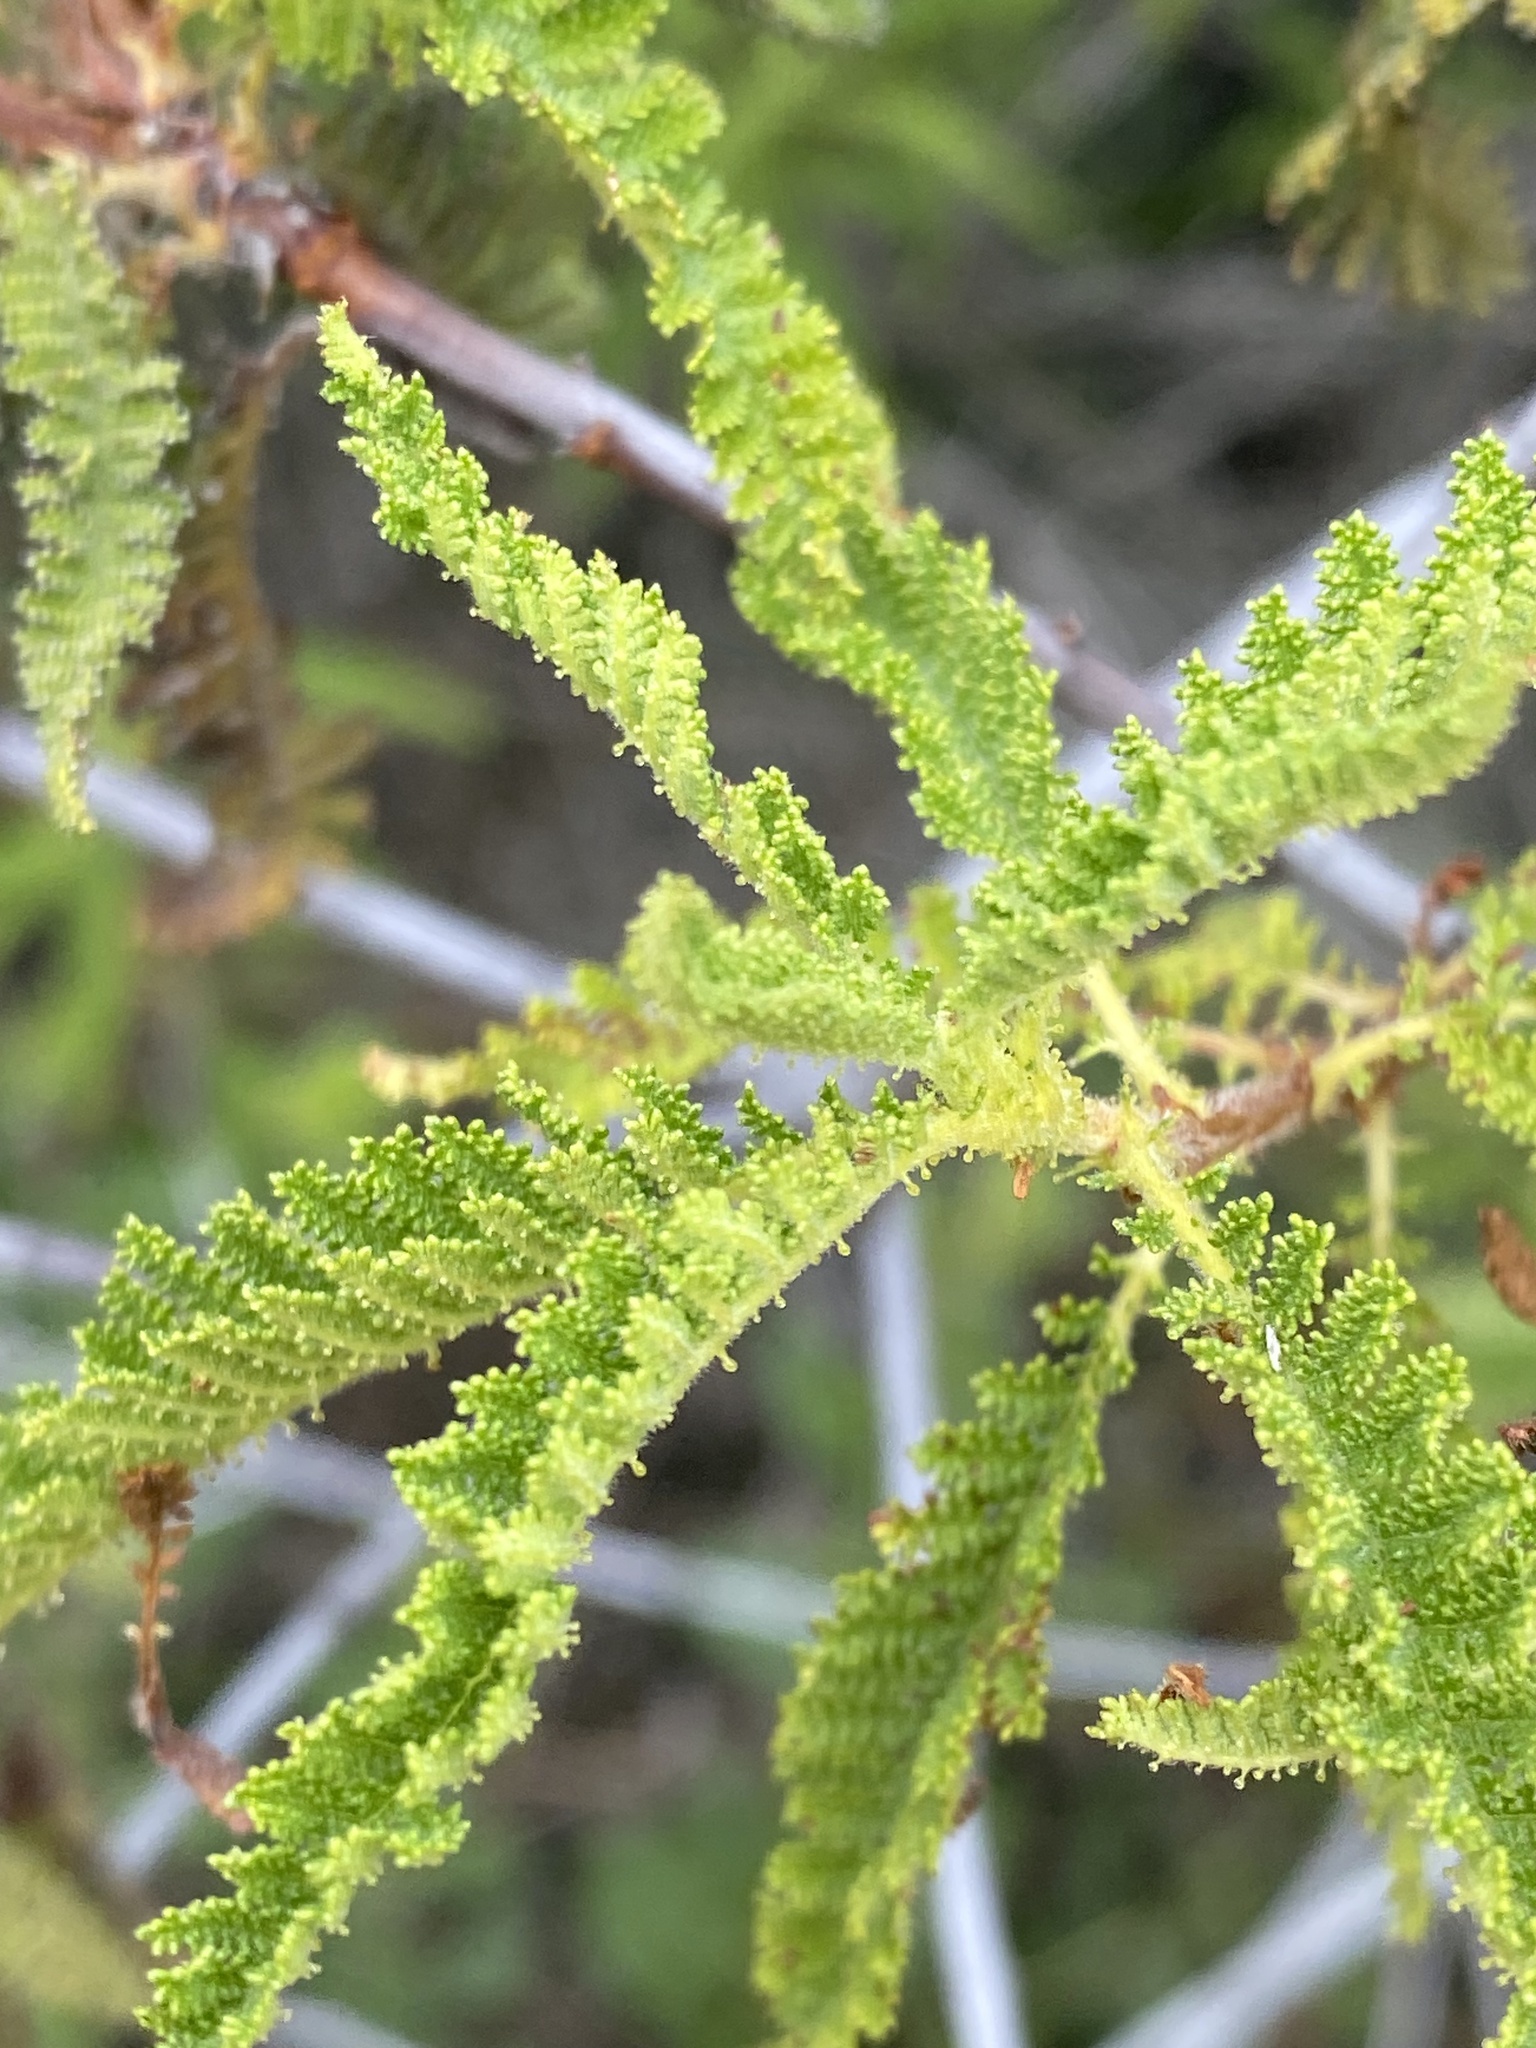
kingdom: Plantae
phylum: Tracheophyta
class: Magnoliopsida
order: Rosales
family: Rosaceae
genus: Chamaebatia
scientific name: Chamaebatia australis
